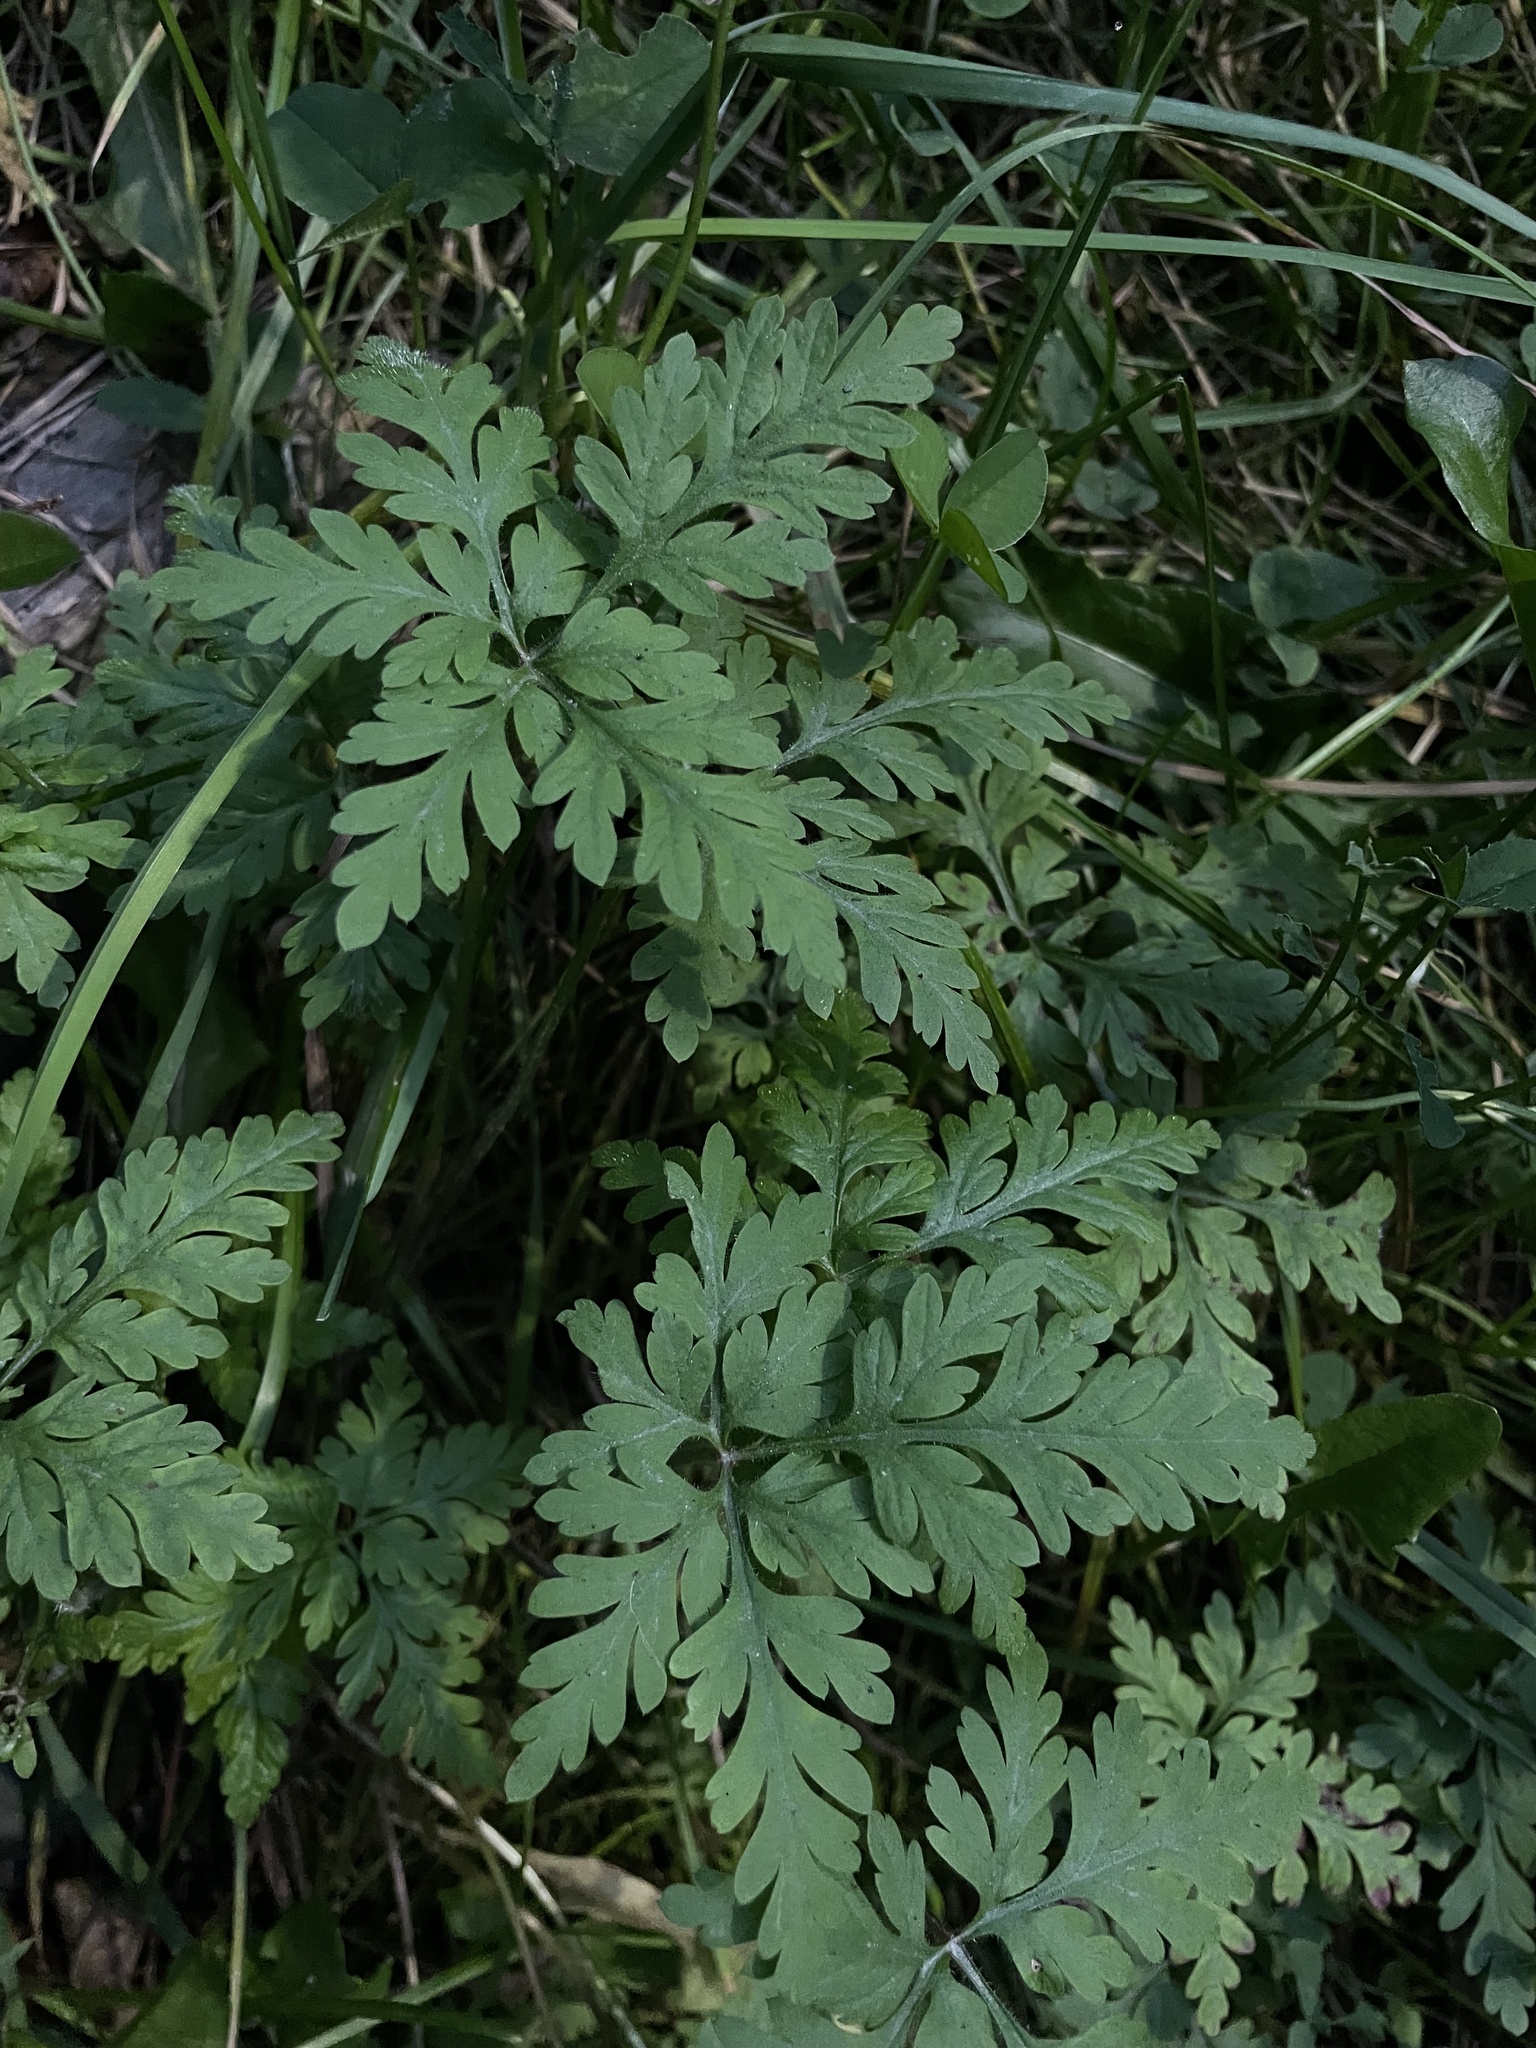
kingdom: Plantae
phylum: Tracheophyta
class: Magnoliopsida
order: Geraniales
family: Geraniaceae
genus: Geranium
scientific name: Geranium robertianum
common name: Herb-robert
